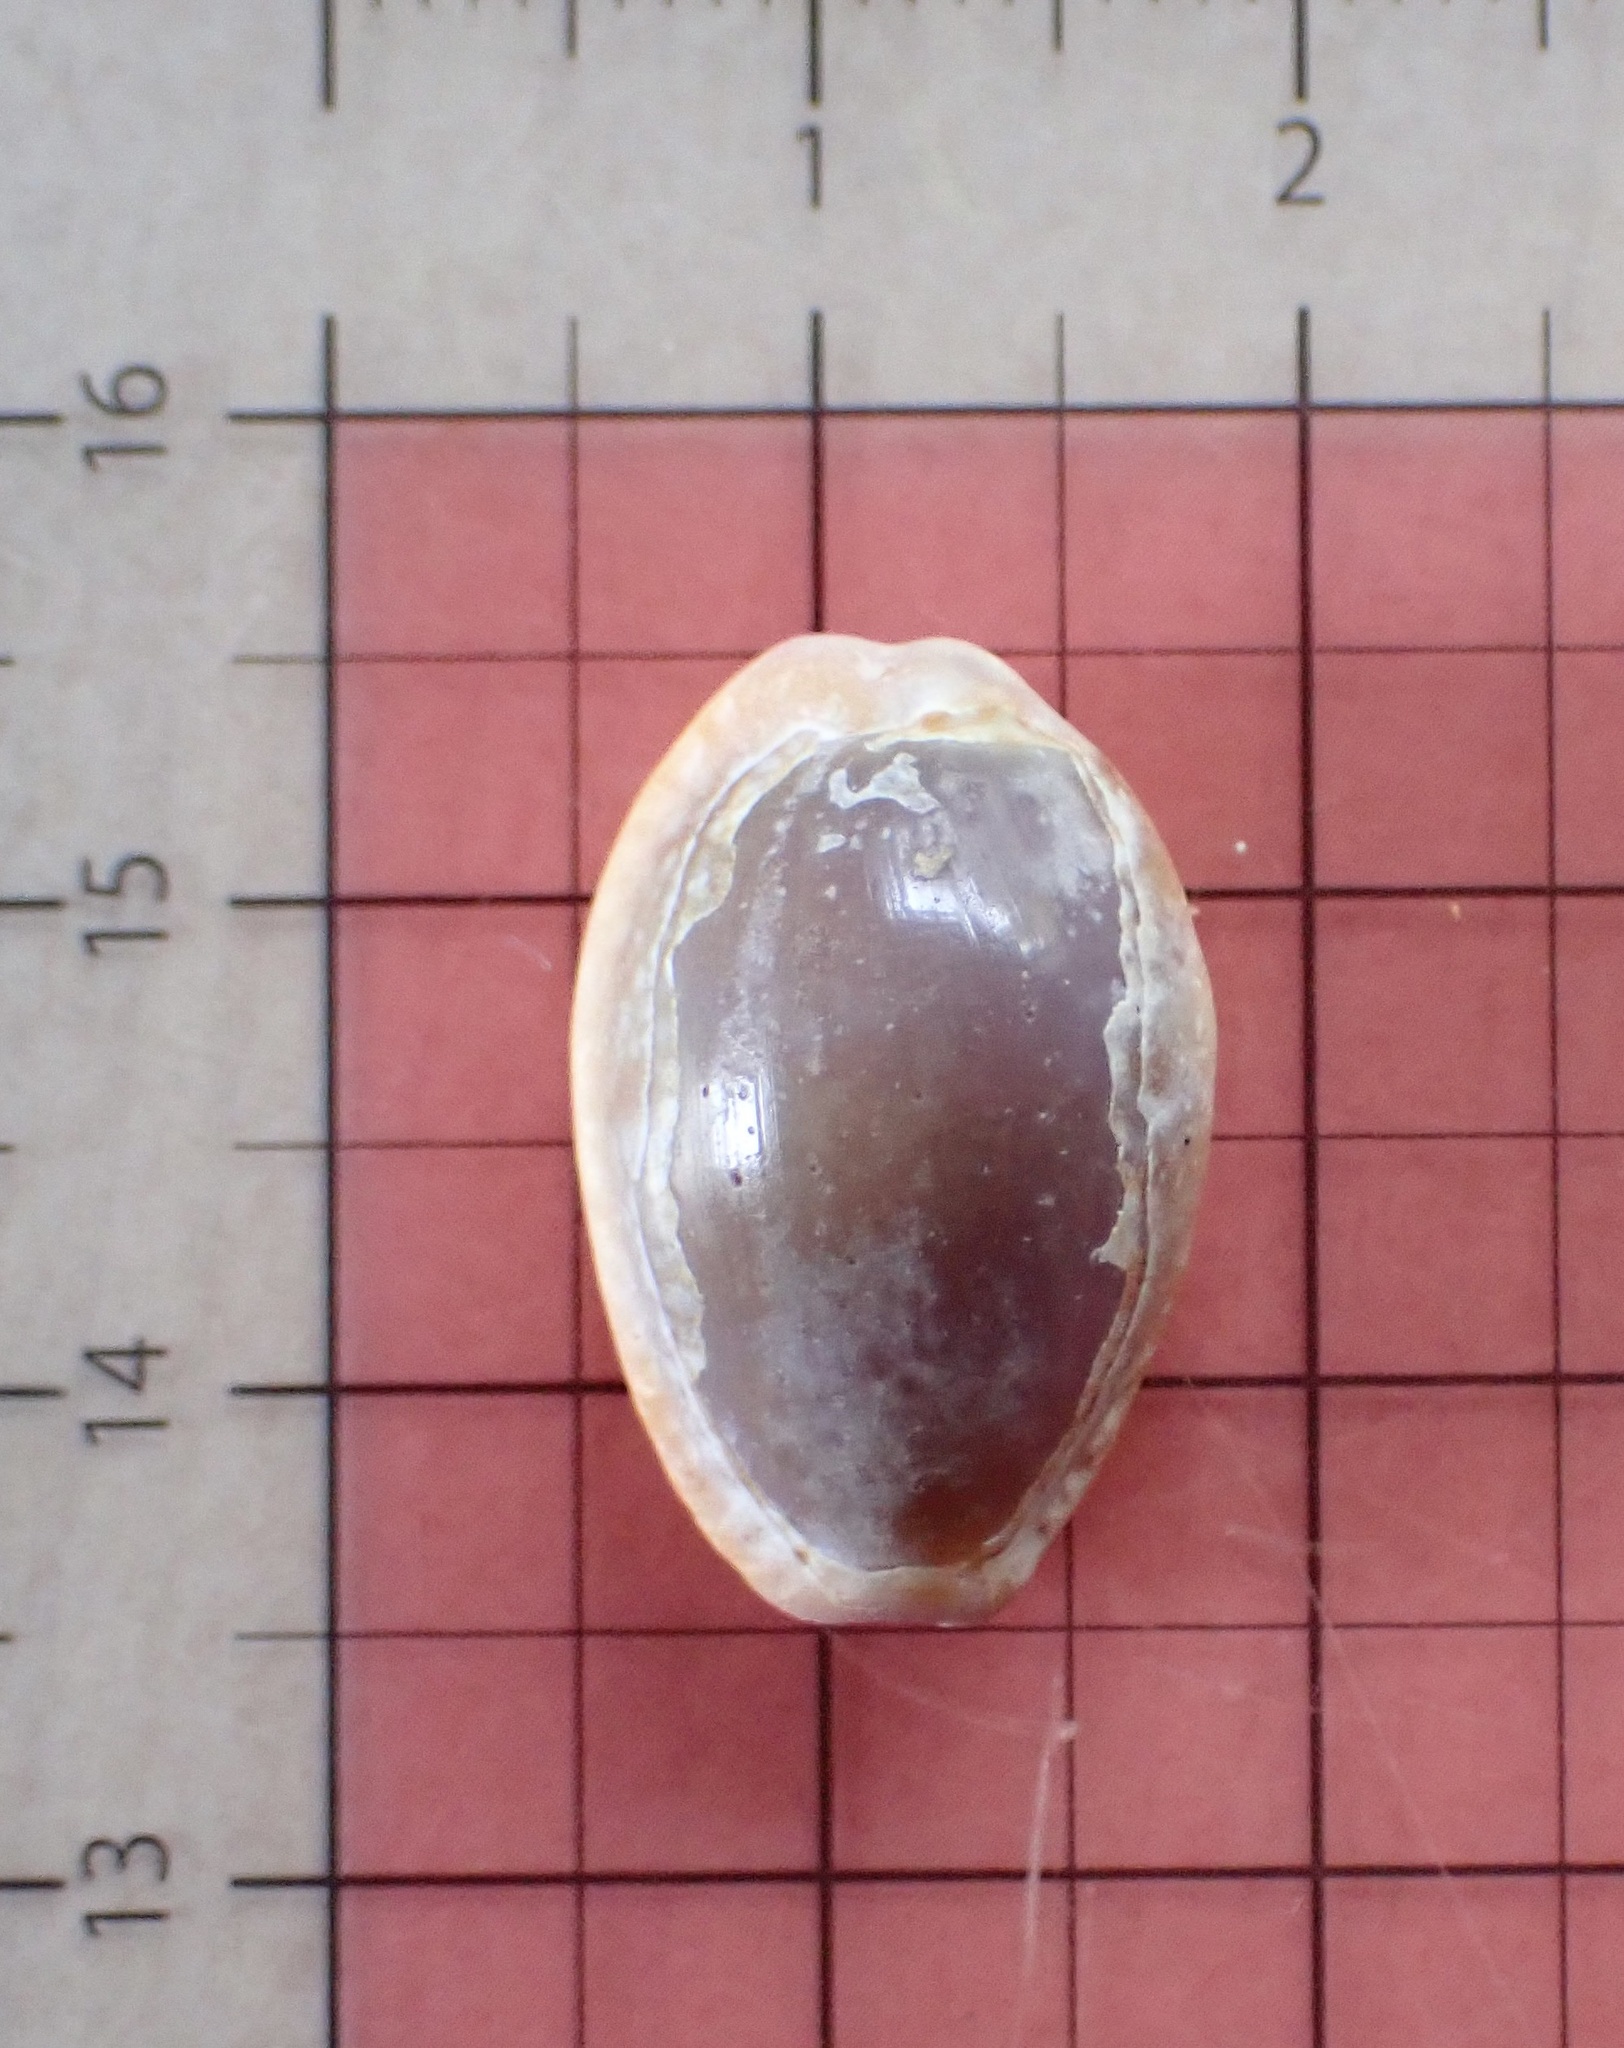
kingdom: Animalia
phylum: Mollusca
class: Gastropoda
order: Littorinimorpha
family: Cypraeidae
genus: Naria
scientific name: Naria helvola
